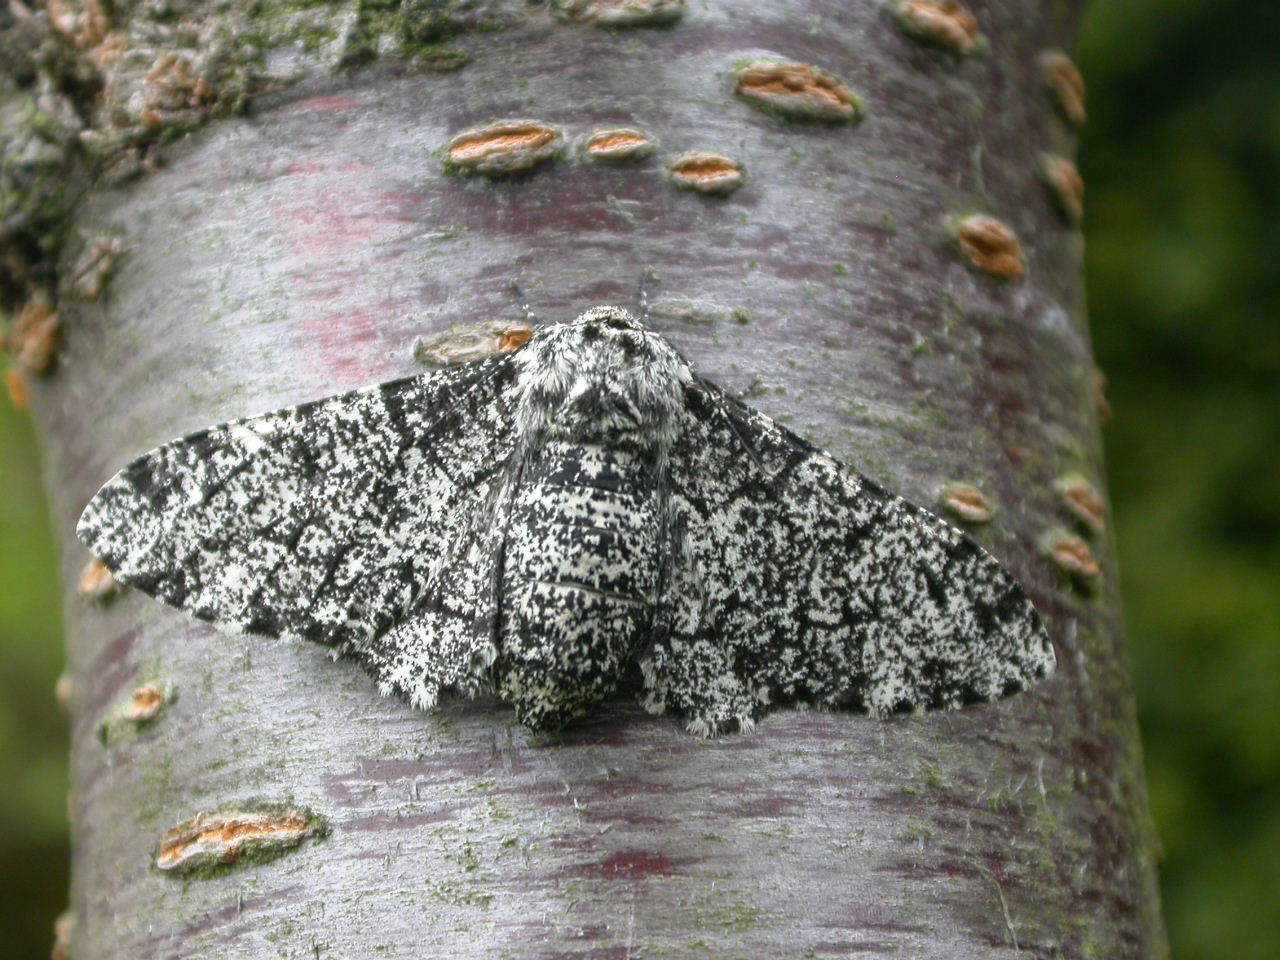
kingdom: Animalia
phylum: Arthropoda
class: Insecta
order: Lepidoptera
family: Geometridae
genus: Biston
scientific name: Biston betularia
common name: Peppered moth
